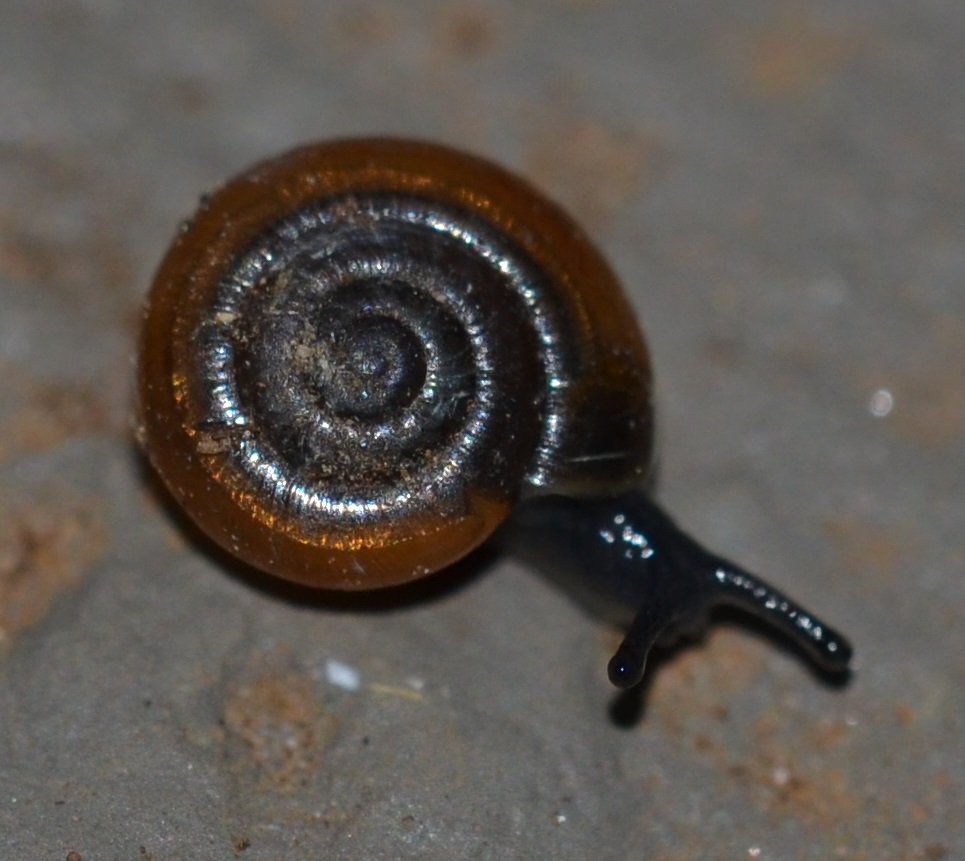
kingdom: Animalia
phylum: Mollusca
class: Gastropoda
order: Stylommatophora
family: Oxychilidae
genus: Oxychilus
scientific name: Oxychilus alliarius
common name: Garlic glass-snail
